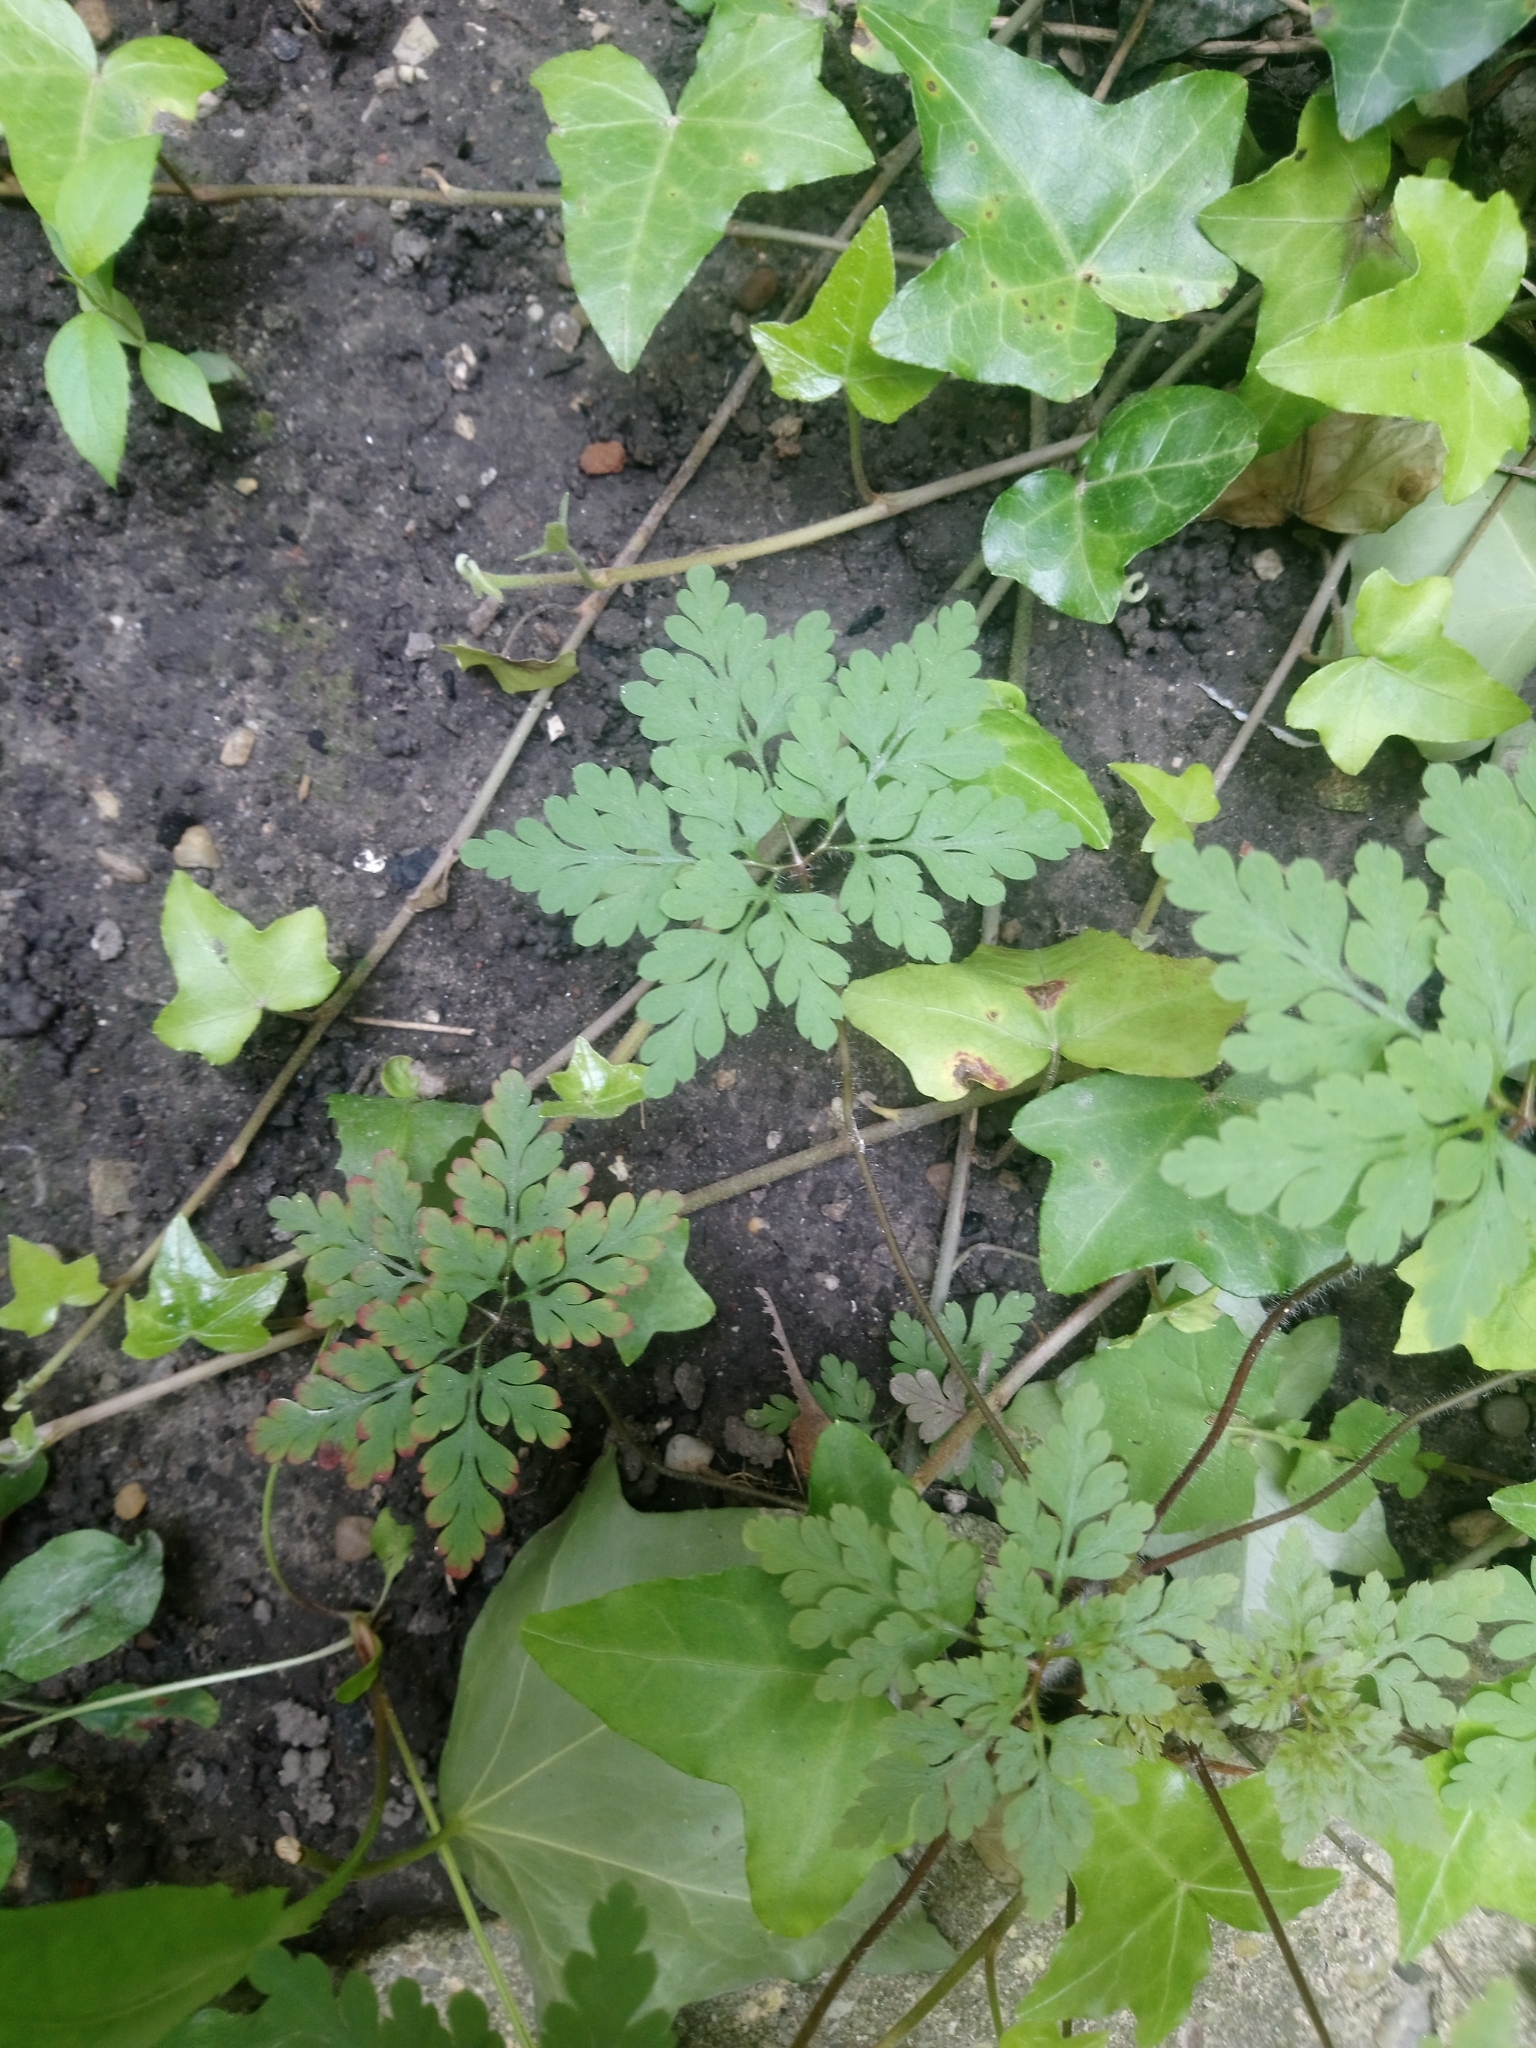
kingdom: Plantae
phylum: Tracheophyta
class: Magnoliopsida
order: Geraniales
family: Geraniaceae
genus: Geranium
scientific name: Geranium robertianum
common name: Herb-robert
